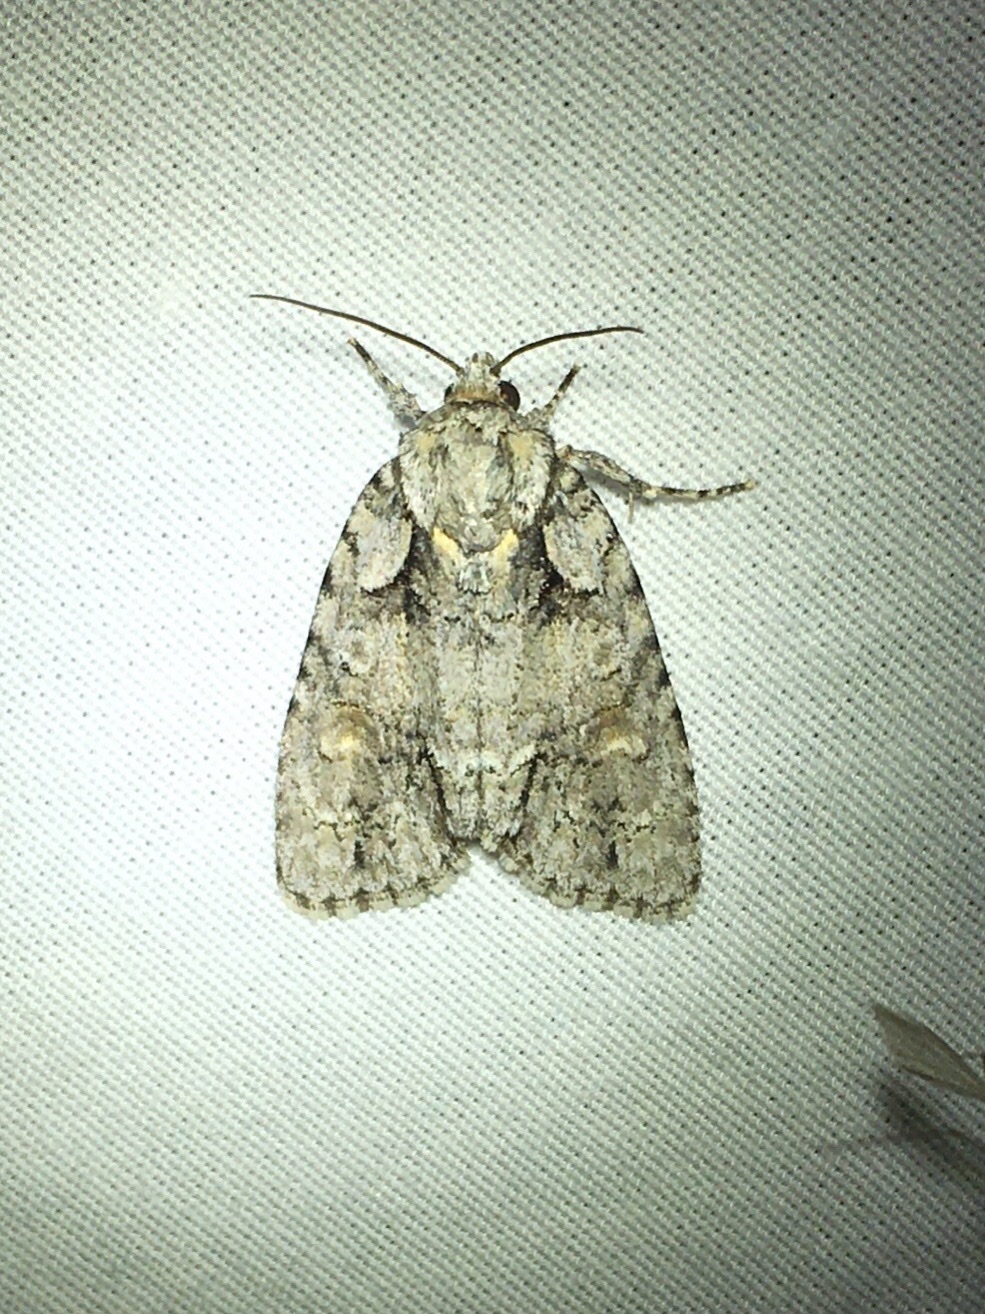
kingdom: Animalia
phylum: Arthropoda
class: Insecta
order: Lepidoptera
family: Noctuidae
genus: Acronicta
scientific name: Acronicta ovata
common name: Epauleted oak dagger
